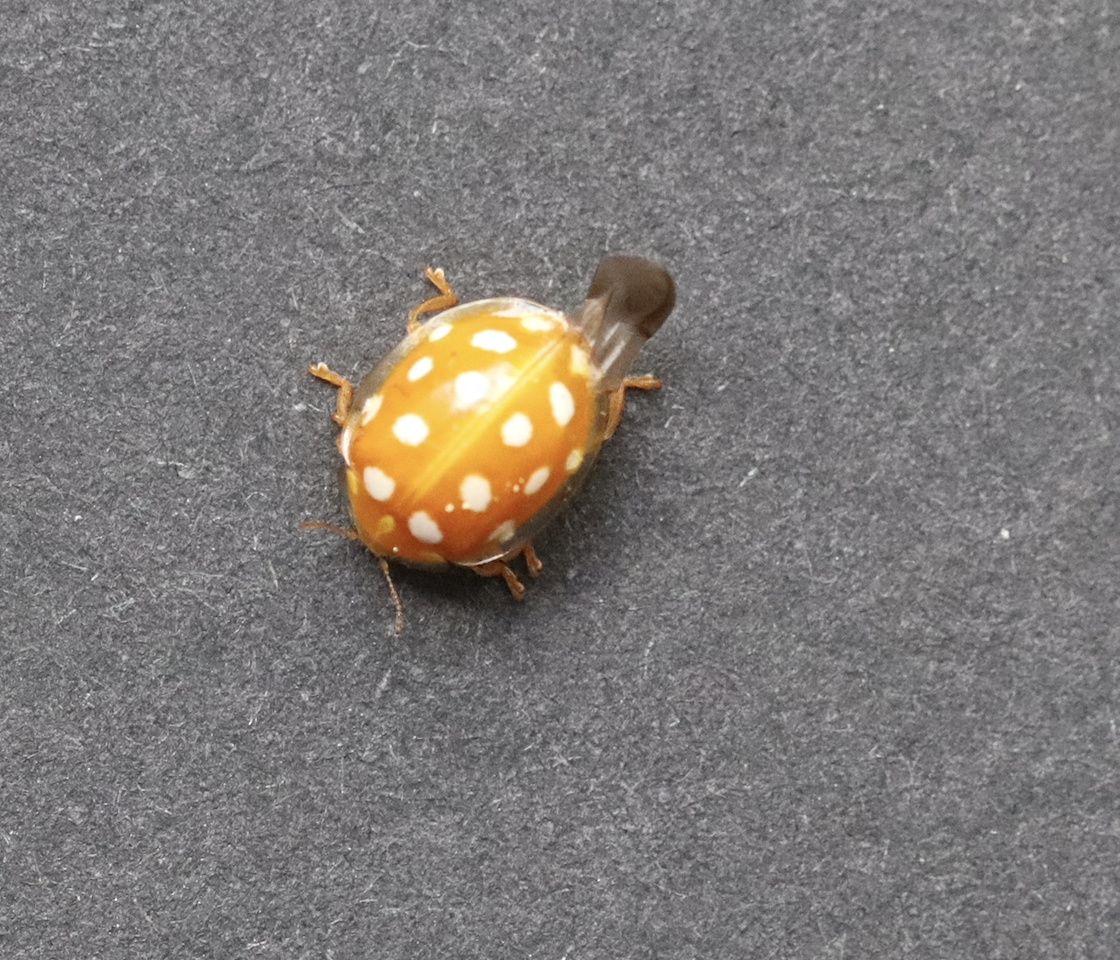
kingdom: Animalia
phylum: Arthropoda
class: Insecta
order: Coleoptera
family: Coccinellidae
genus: Halyzia
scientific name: Halyzia sedecimguttata
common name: Orange ladybird
